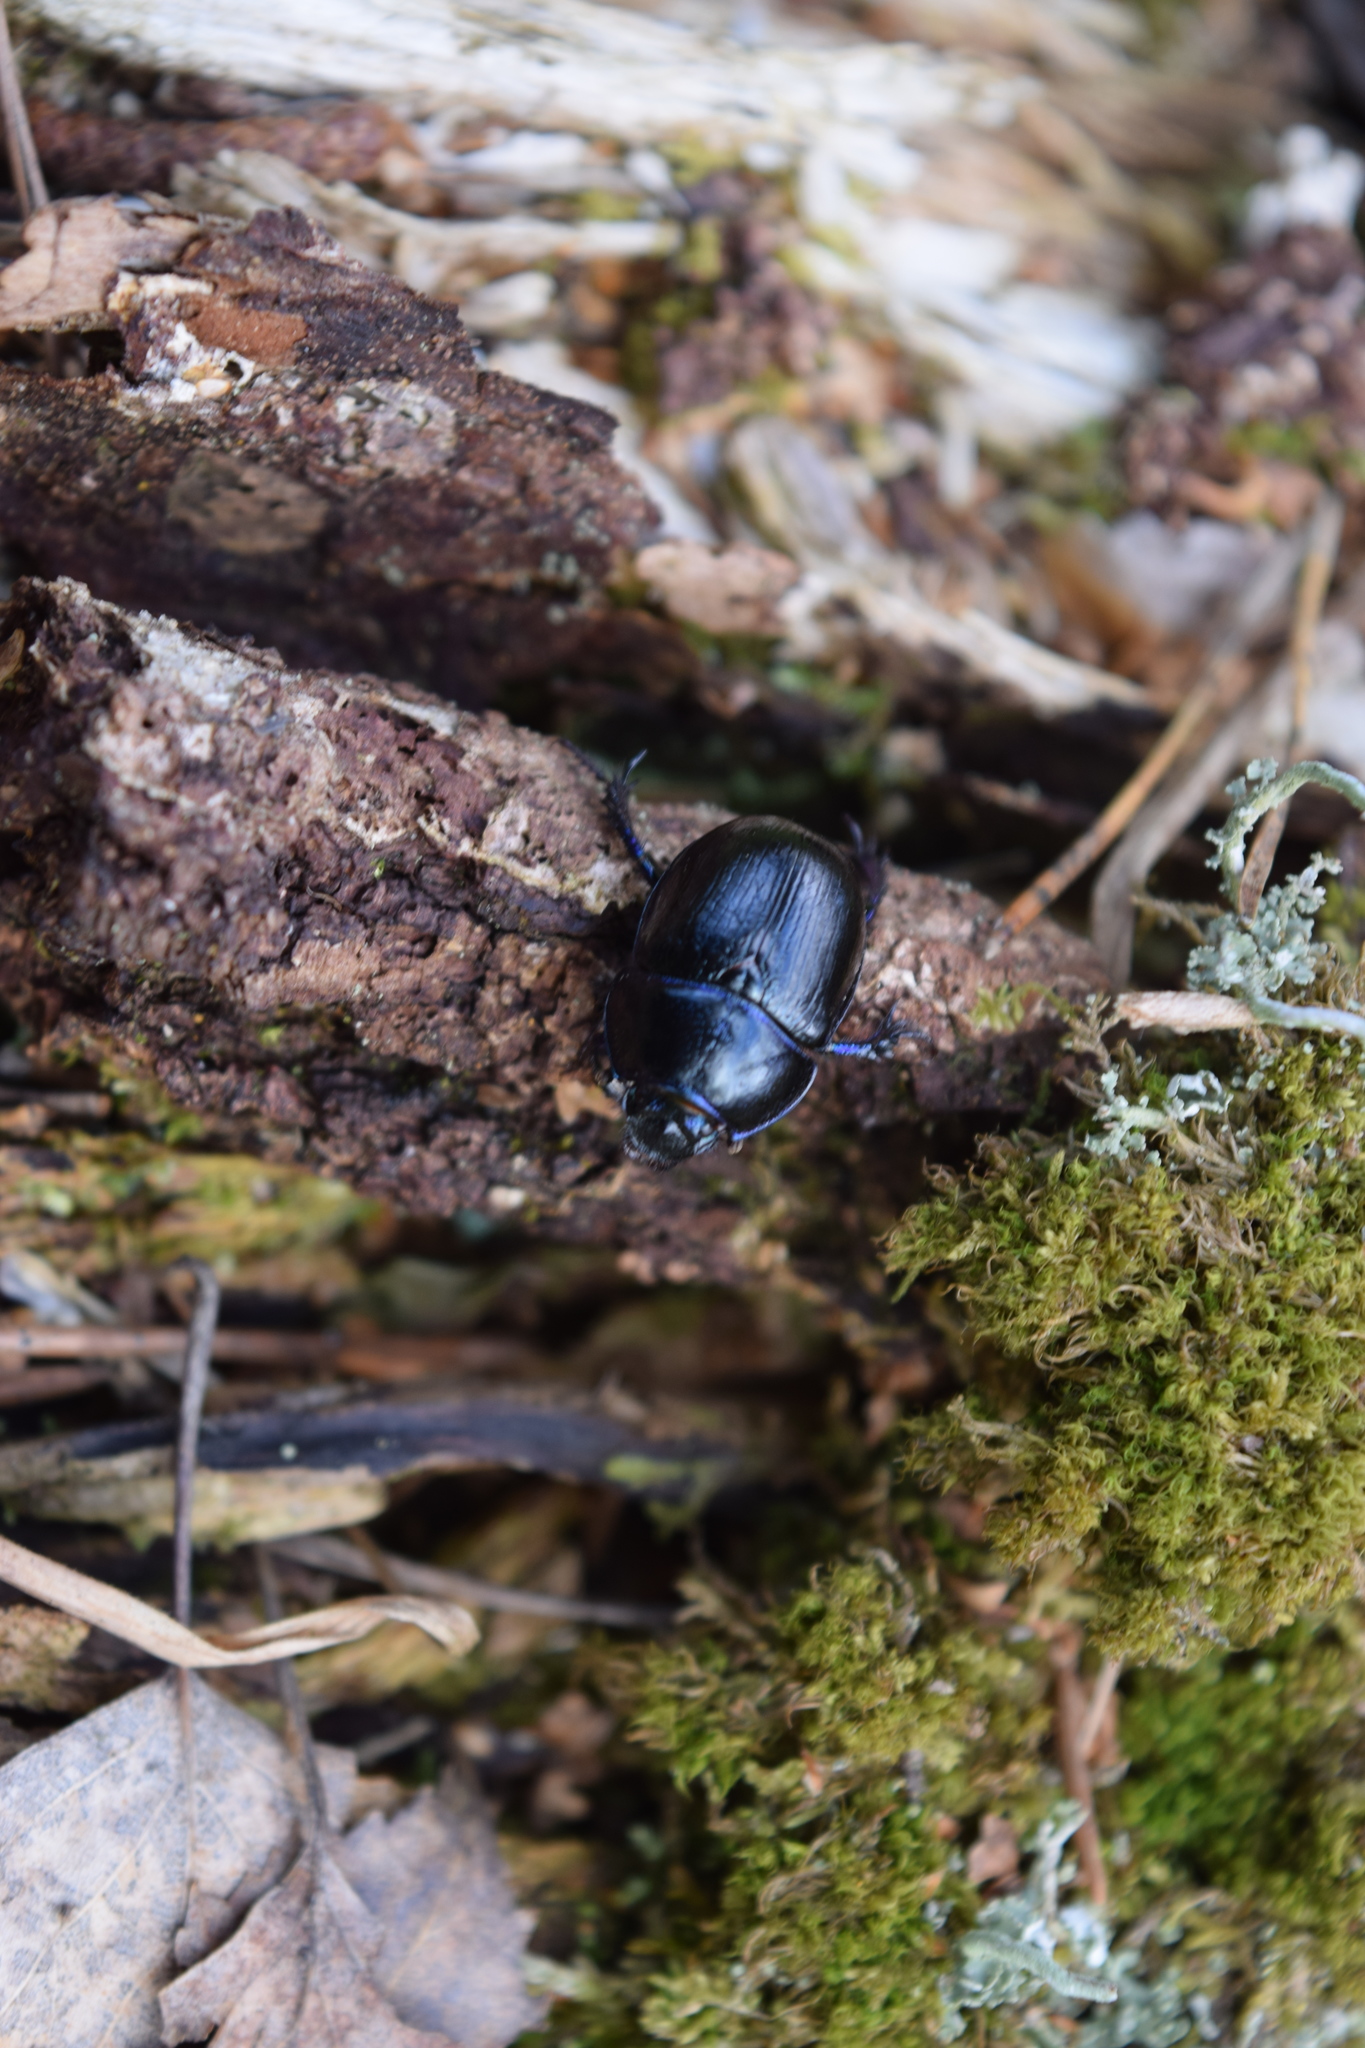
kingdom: Animalia
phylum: Arthropoda
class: Insecta
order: Coleoptera
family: Geotrupidae
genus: Anoplotrupes
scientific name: Anoplotrupes stercorosus
